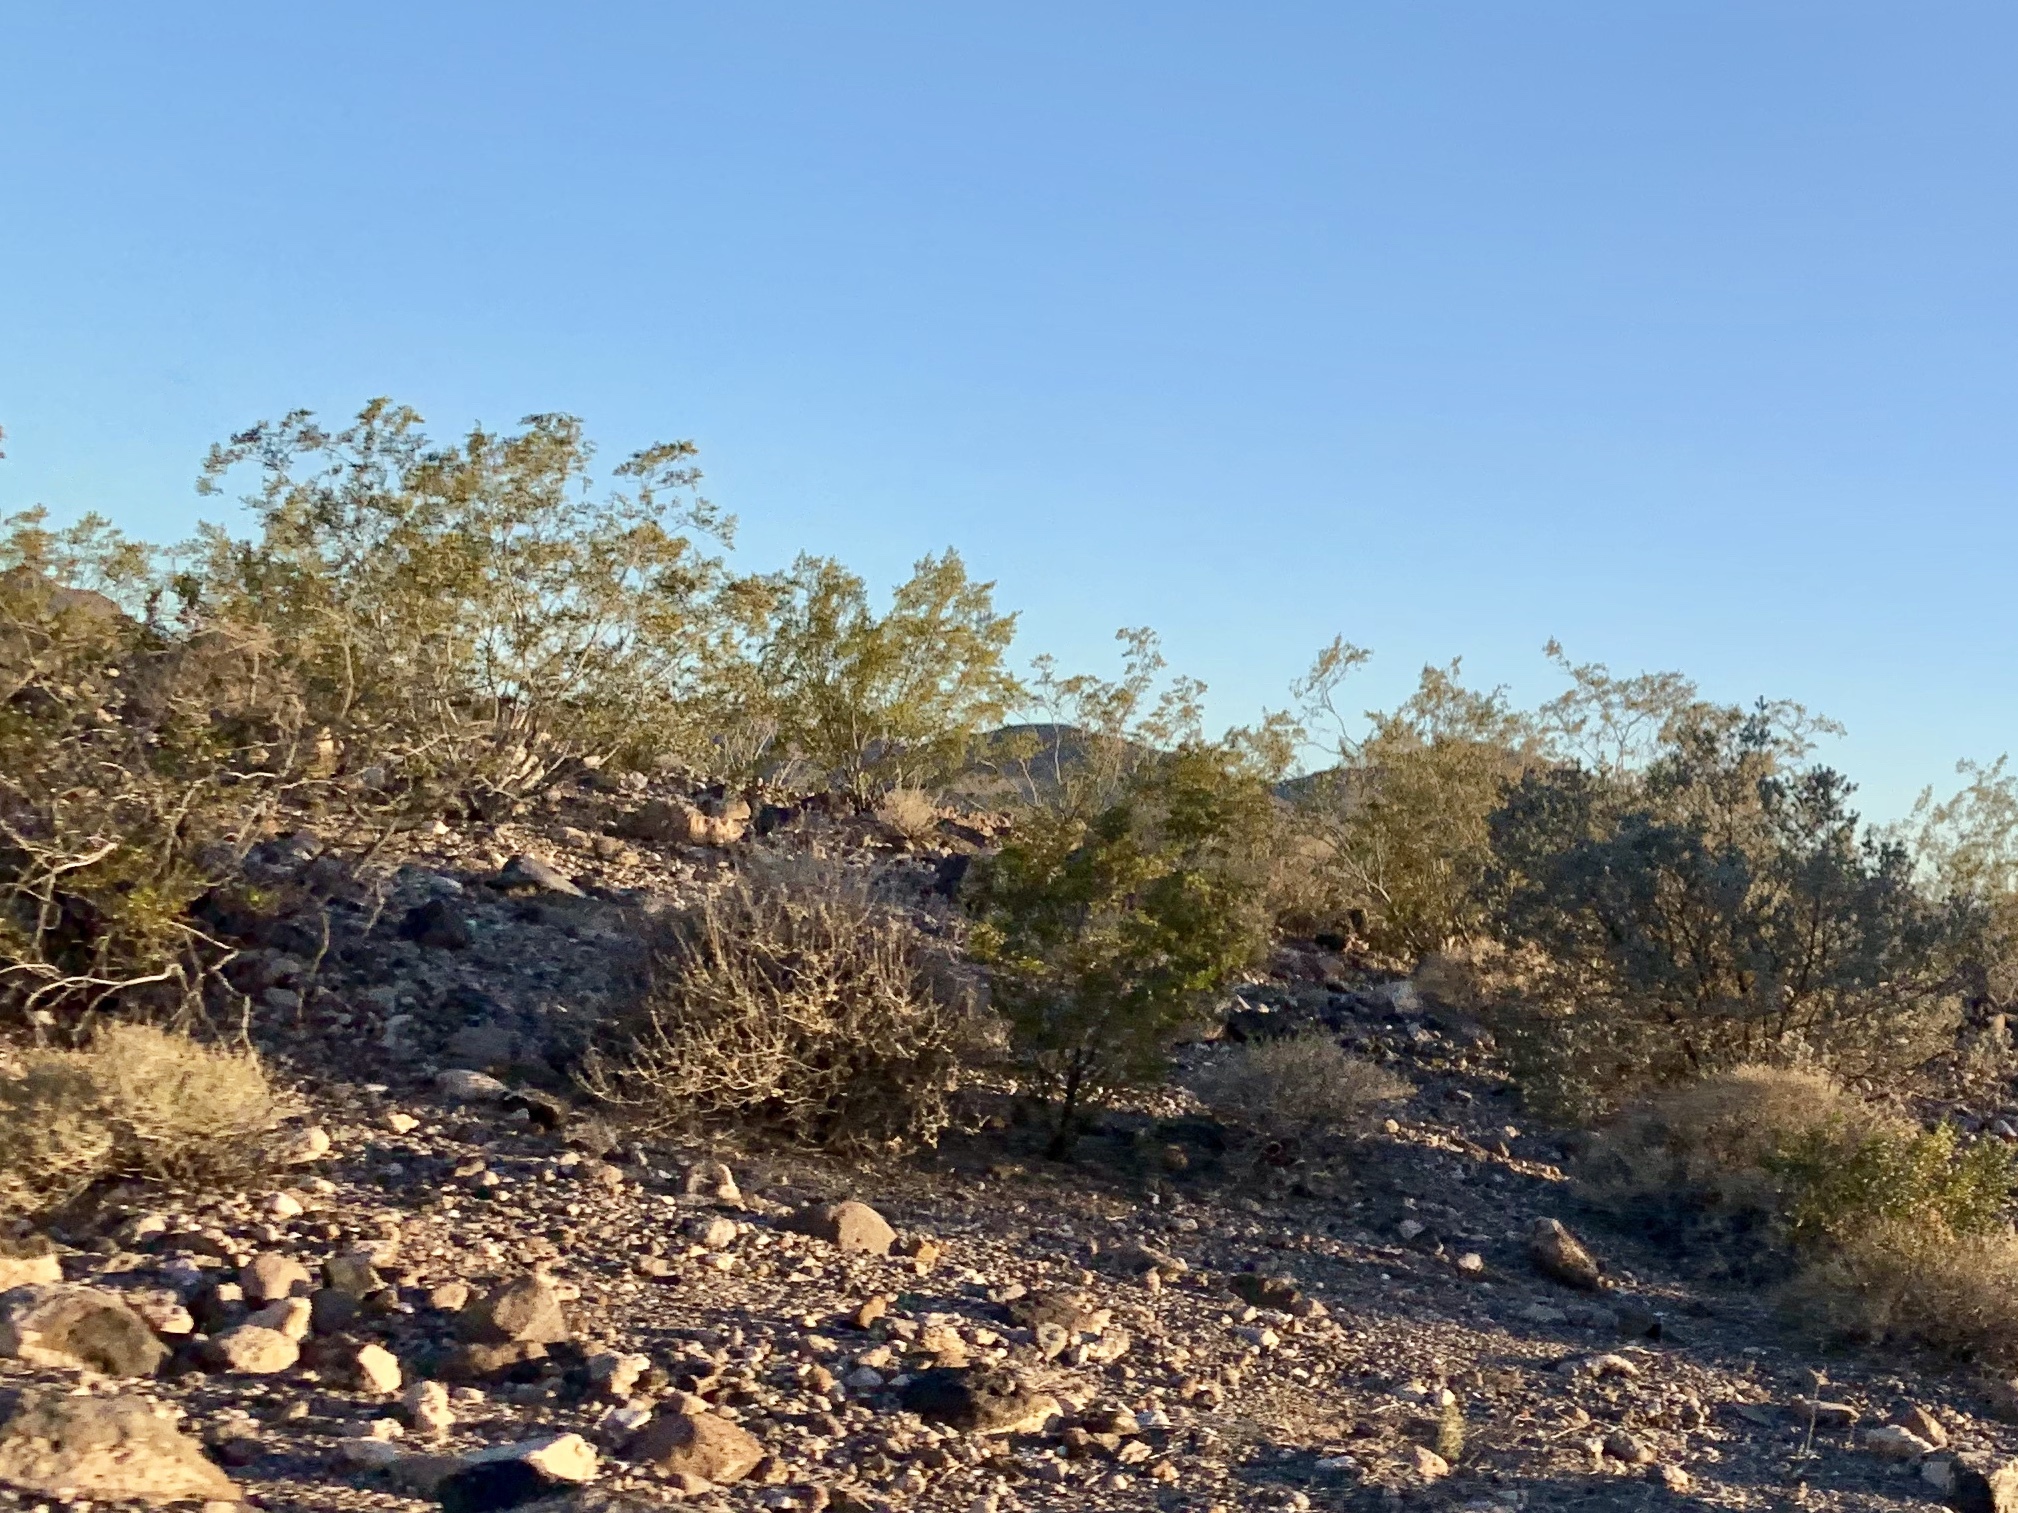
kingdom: Plantae
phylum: Tracheophyta
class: Magnoliopsida
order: Zygophyllales
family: Zygophyllaceae
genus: Larrea
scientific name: Larrea tridentata
